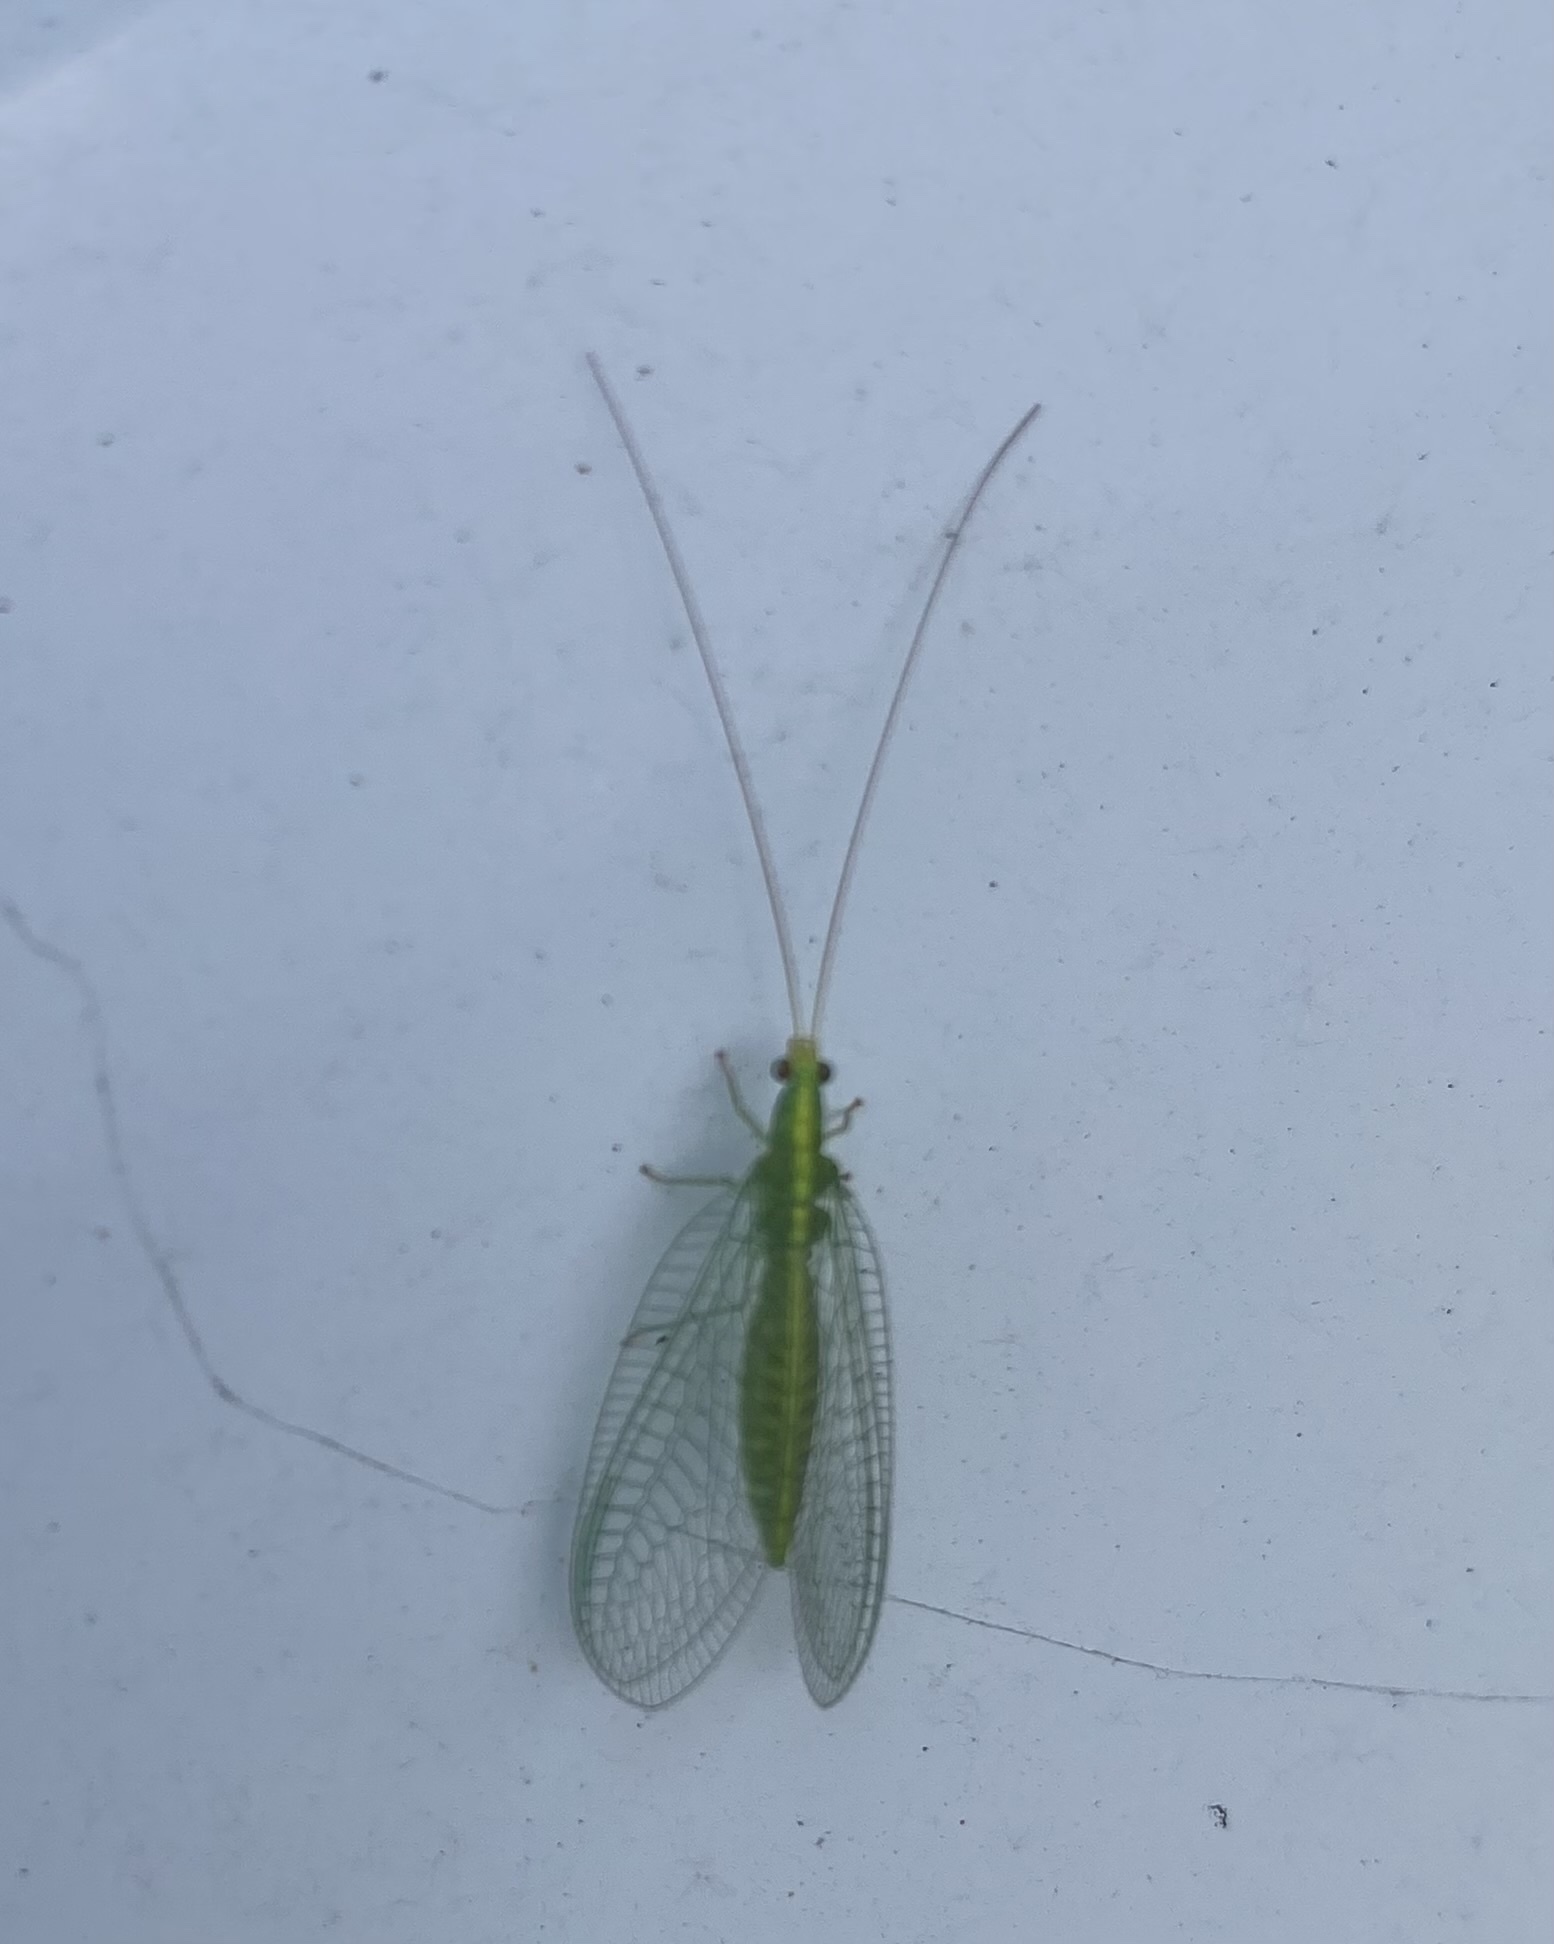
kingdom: Animalia
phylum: Arthropoda
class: Insecta
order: Neuroptera
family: Chrysopidae
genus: Mallada
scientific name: Mallada basalis
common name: Green lacewing
